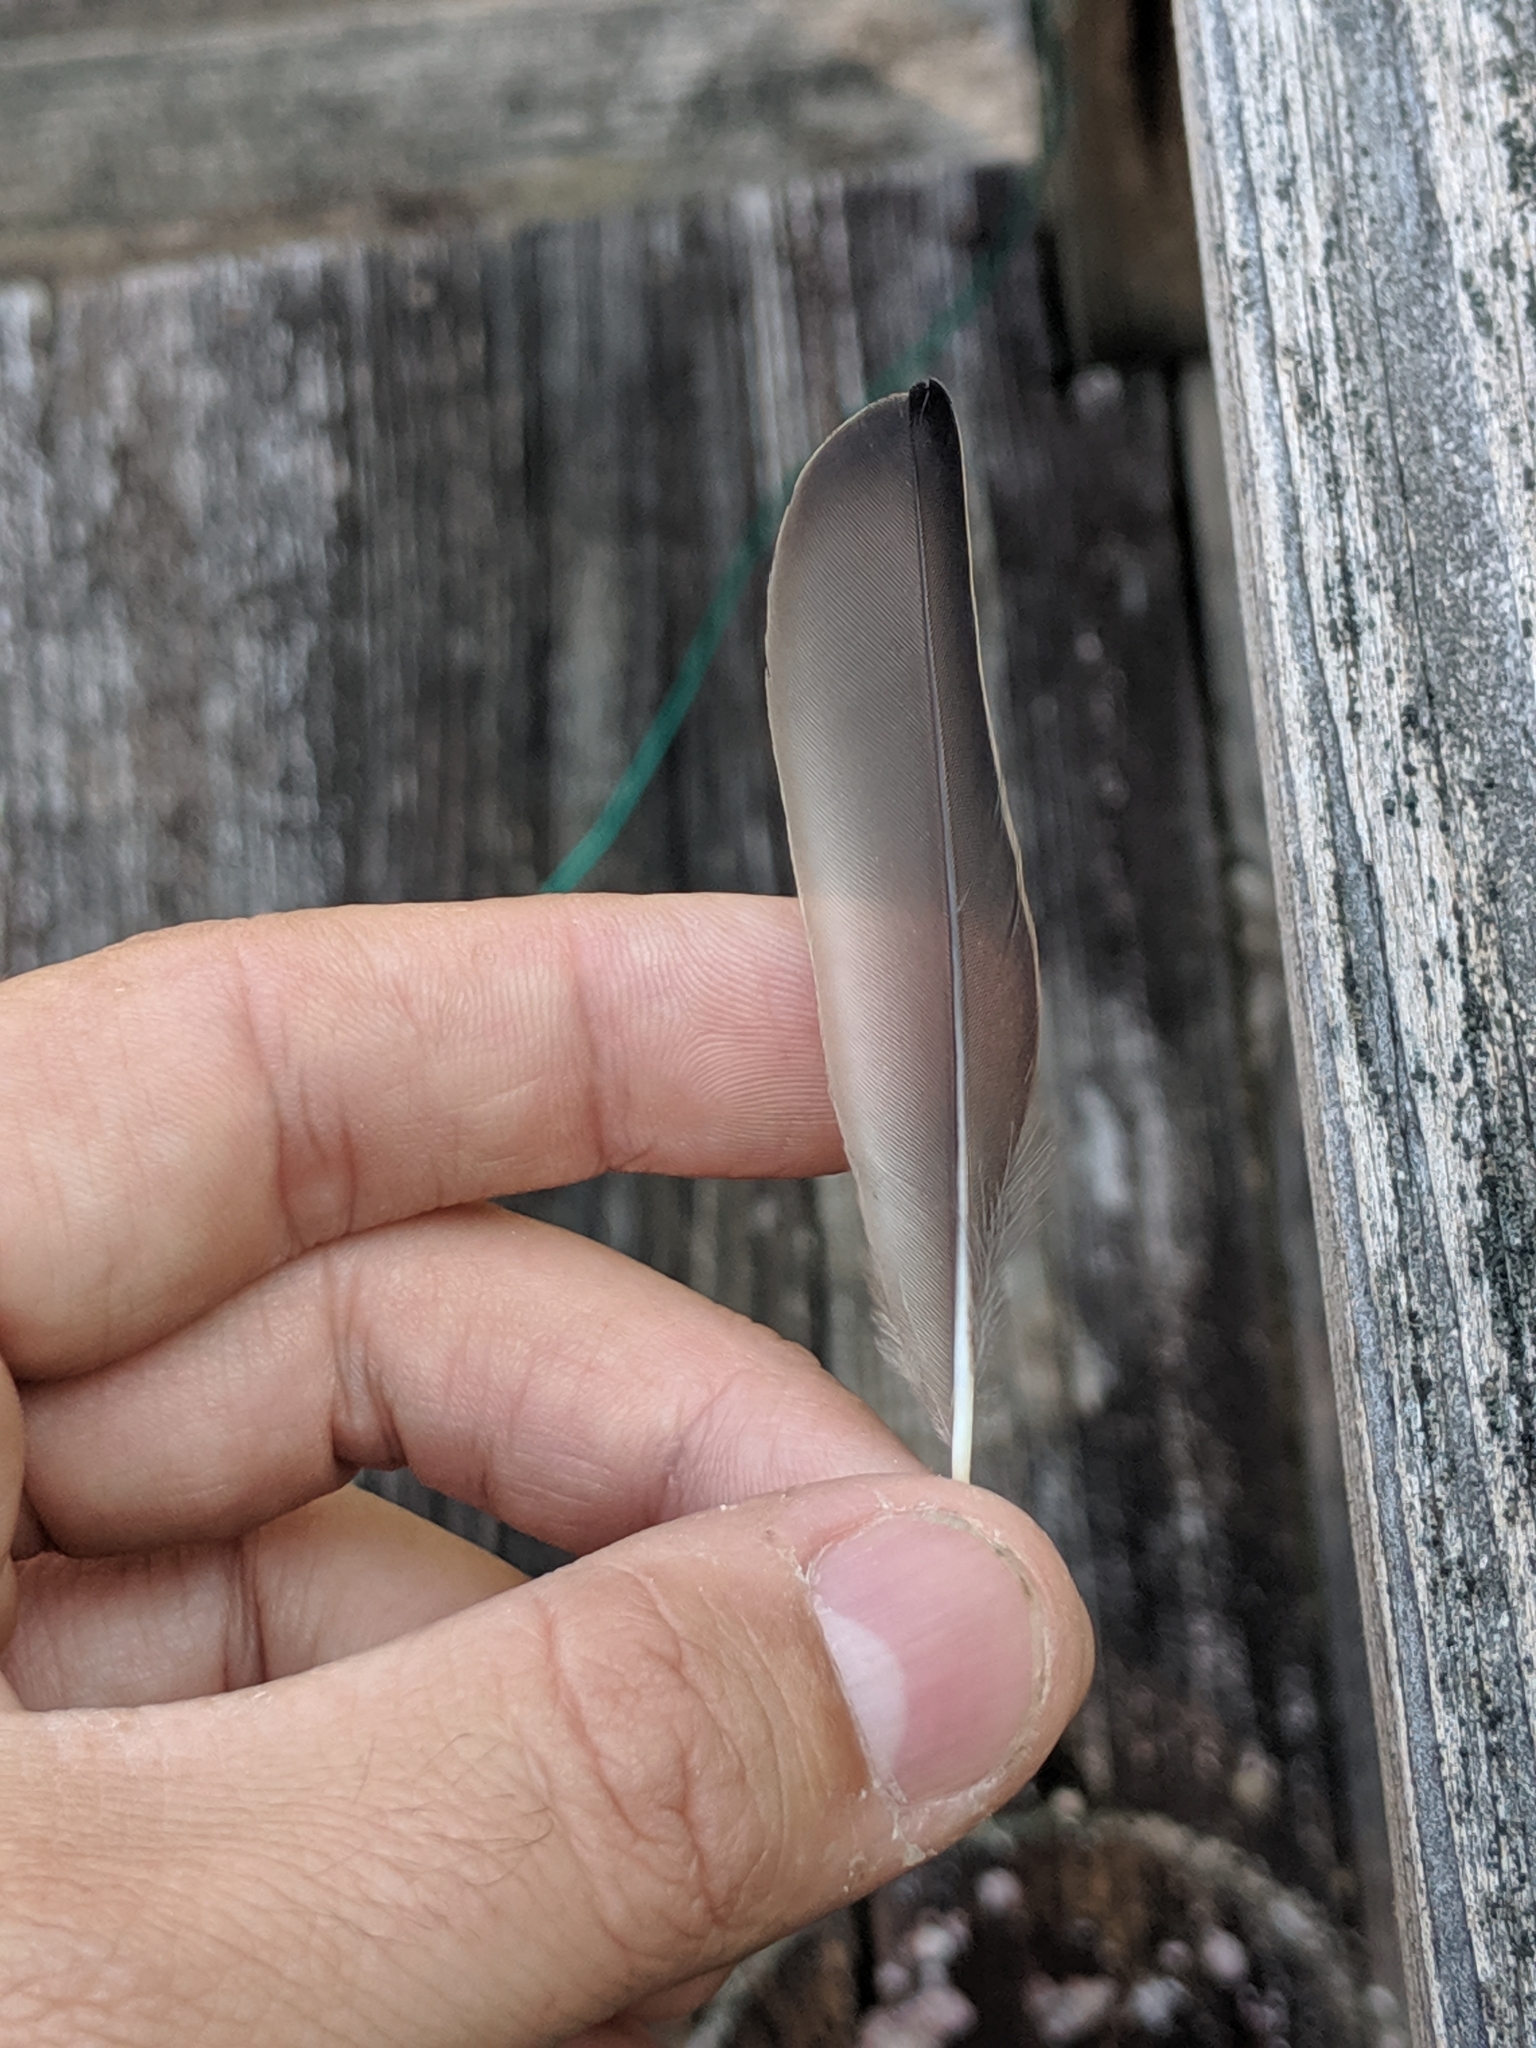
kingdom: Animalia
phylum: Chordata
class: Aves
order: Passeriformes
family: Sturnidae
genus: Sturnus
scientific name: Sturnus vulgaris
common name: Common starling
